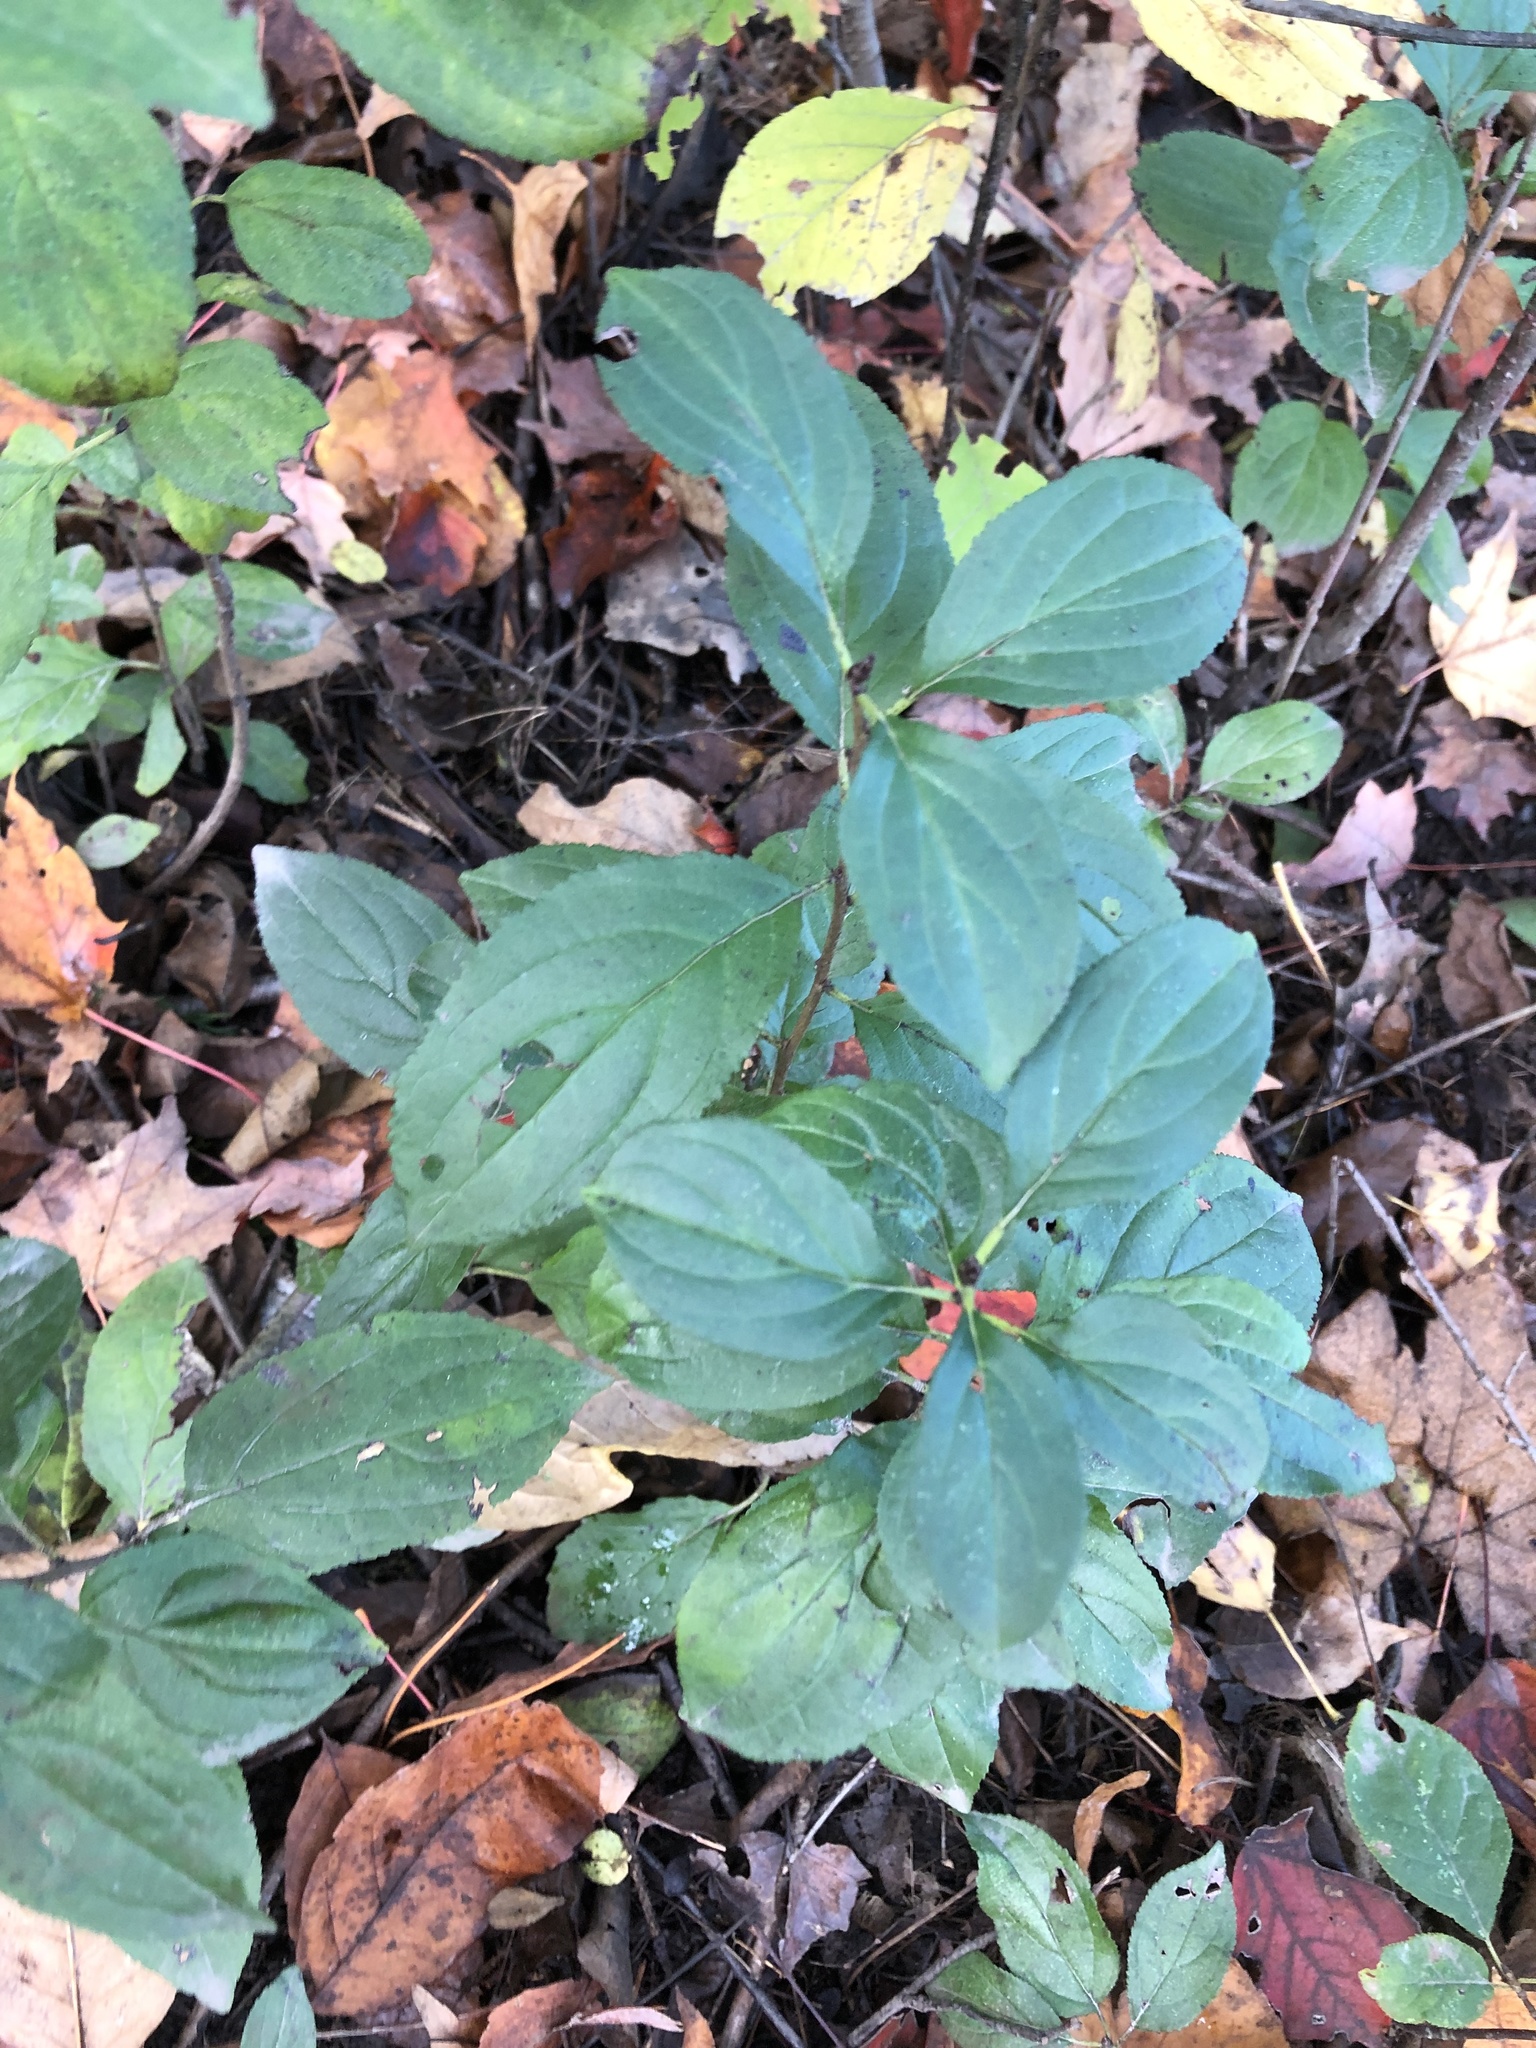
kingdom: Plantae
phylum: Tracheophyta
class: Magnoliopsida
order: Rosales
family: Rhamnaceae
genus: Rhamnus
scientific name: Rhamnus cathartica
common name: Common buckthorn
